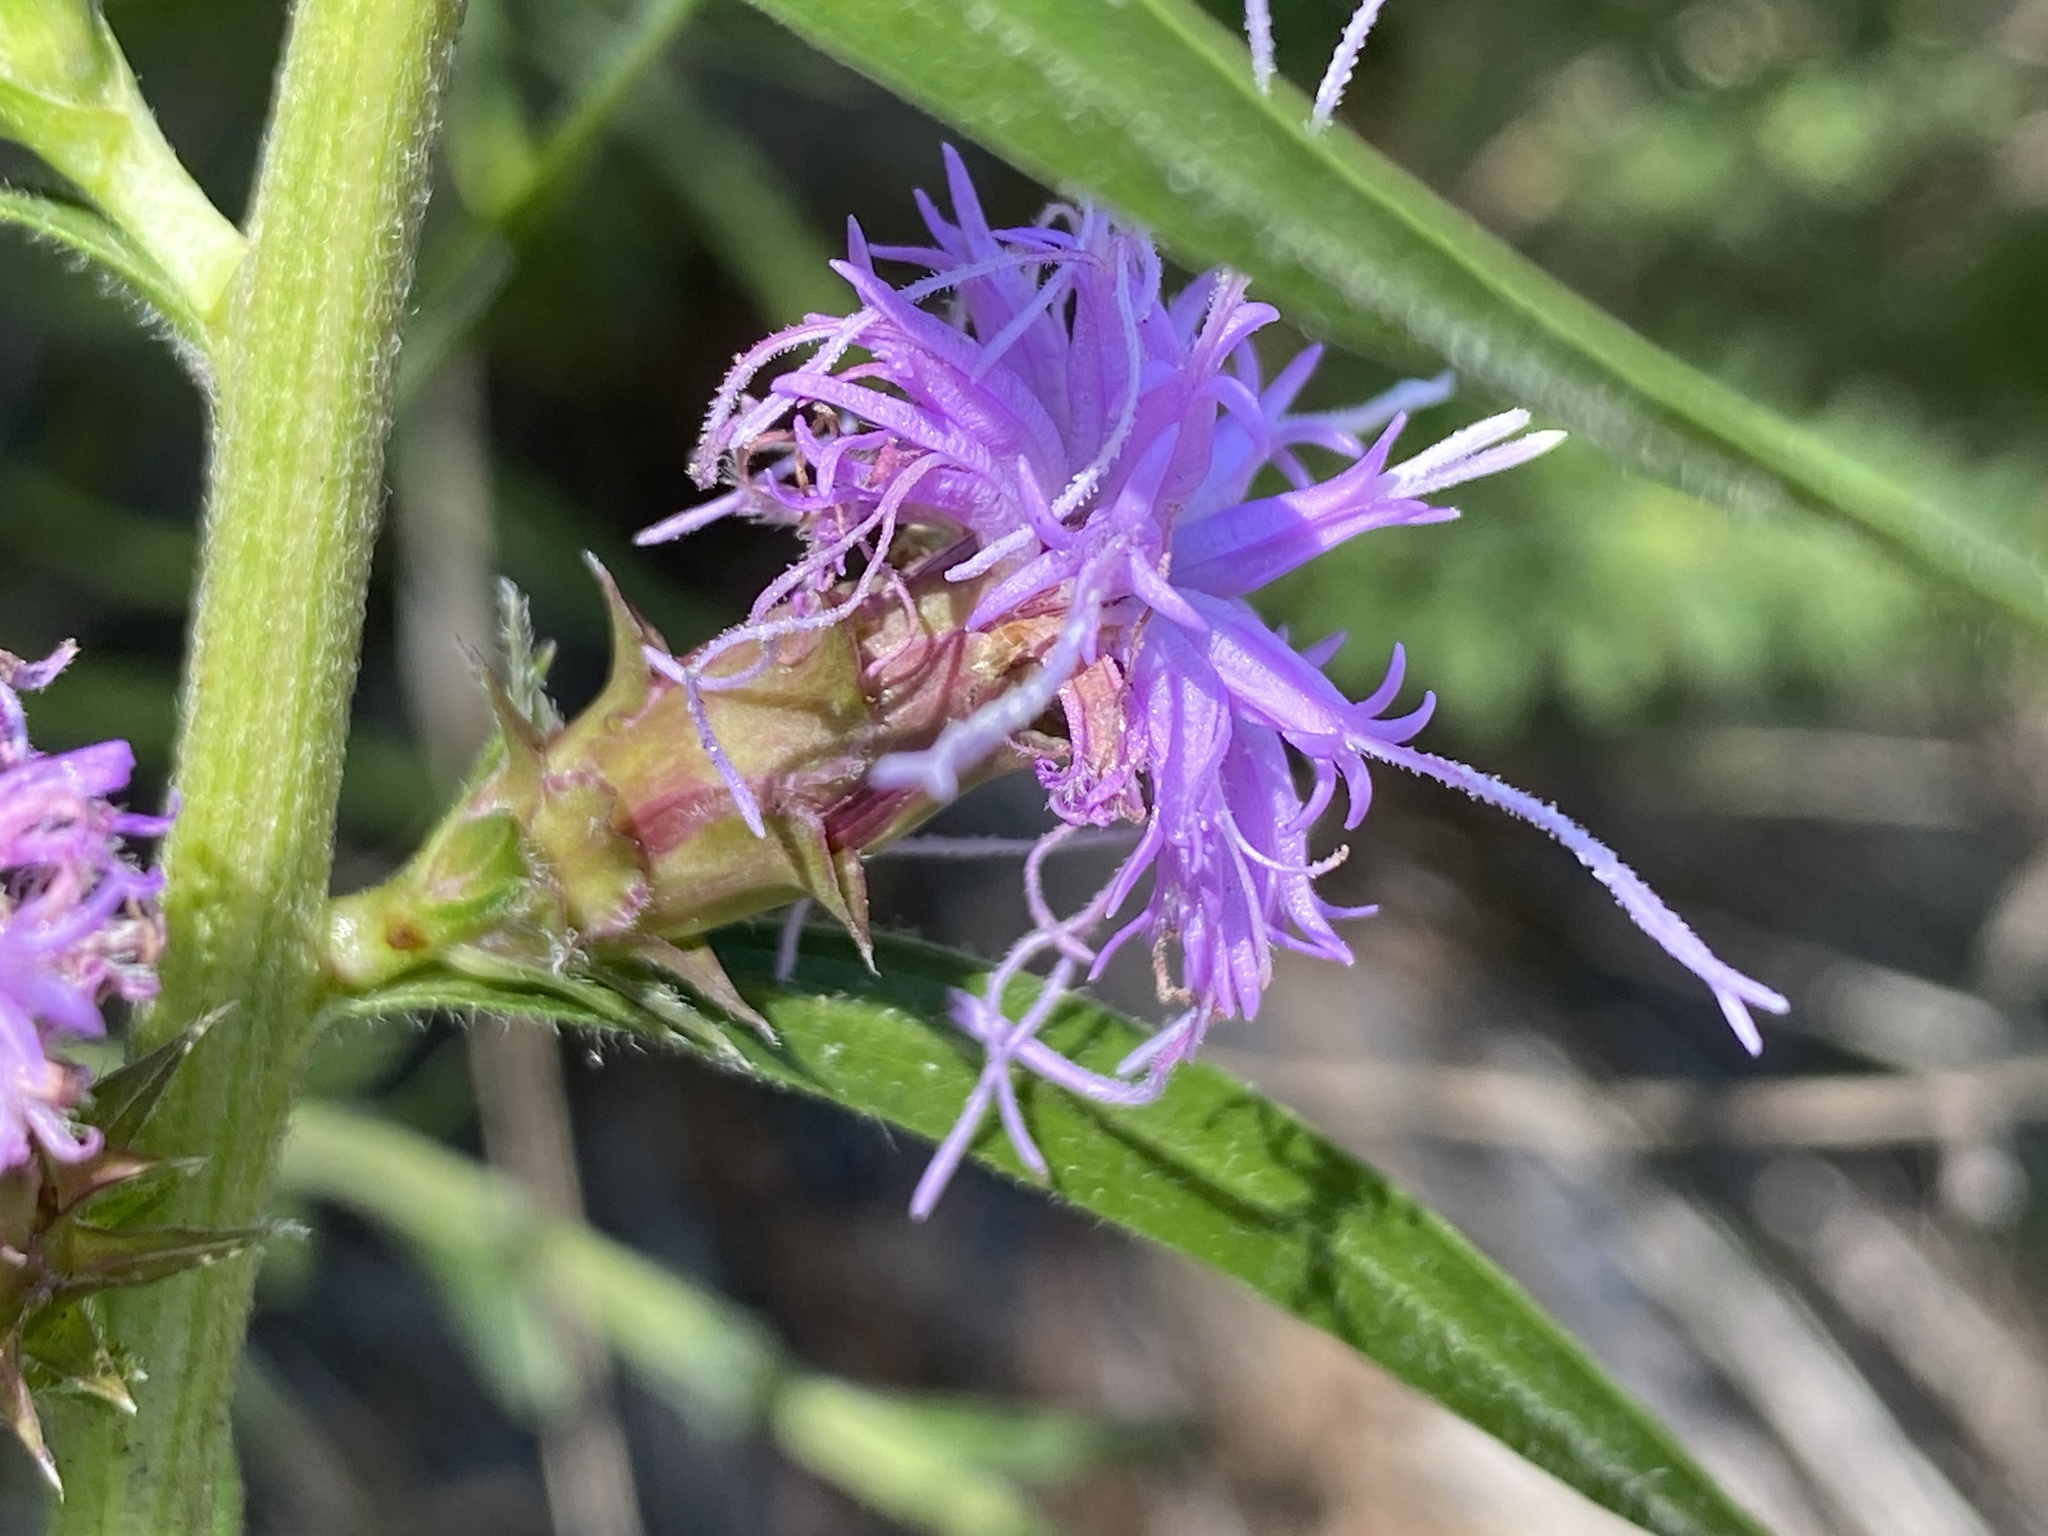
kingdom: Plantae
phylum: Tracheophyta
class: Magnoliopsida
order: Asterales
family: Asteraceae
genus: Liatris
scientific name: Liatris squarrosa
